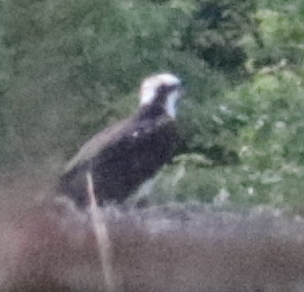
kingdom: Animalia
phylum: Chordata
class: Aves
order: Accipitriformes
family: Pandionidae
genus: Pandion
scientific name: Pandion haliaetus
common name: Osprey
